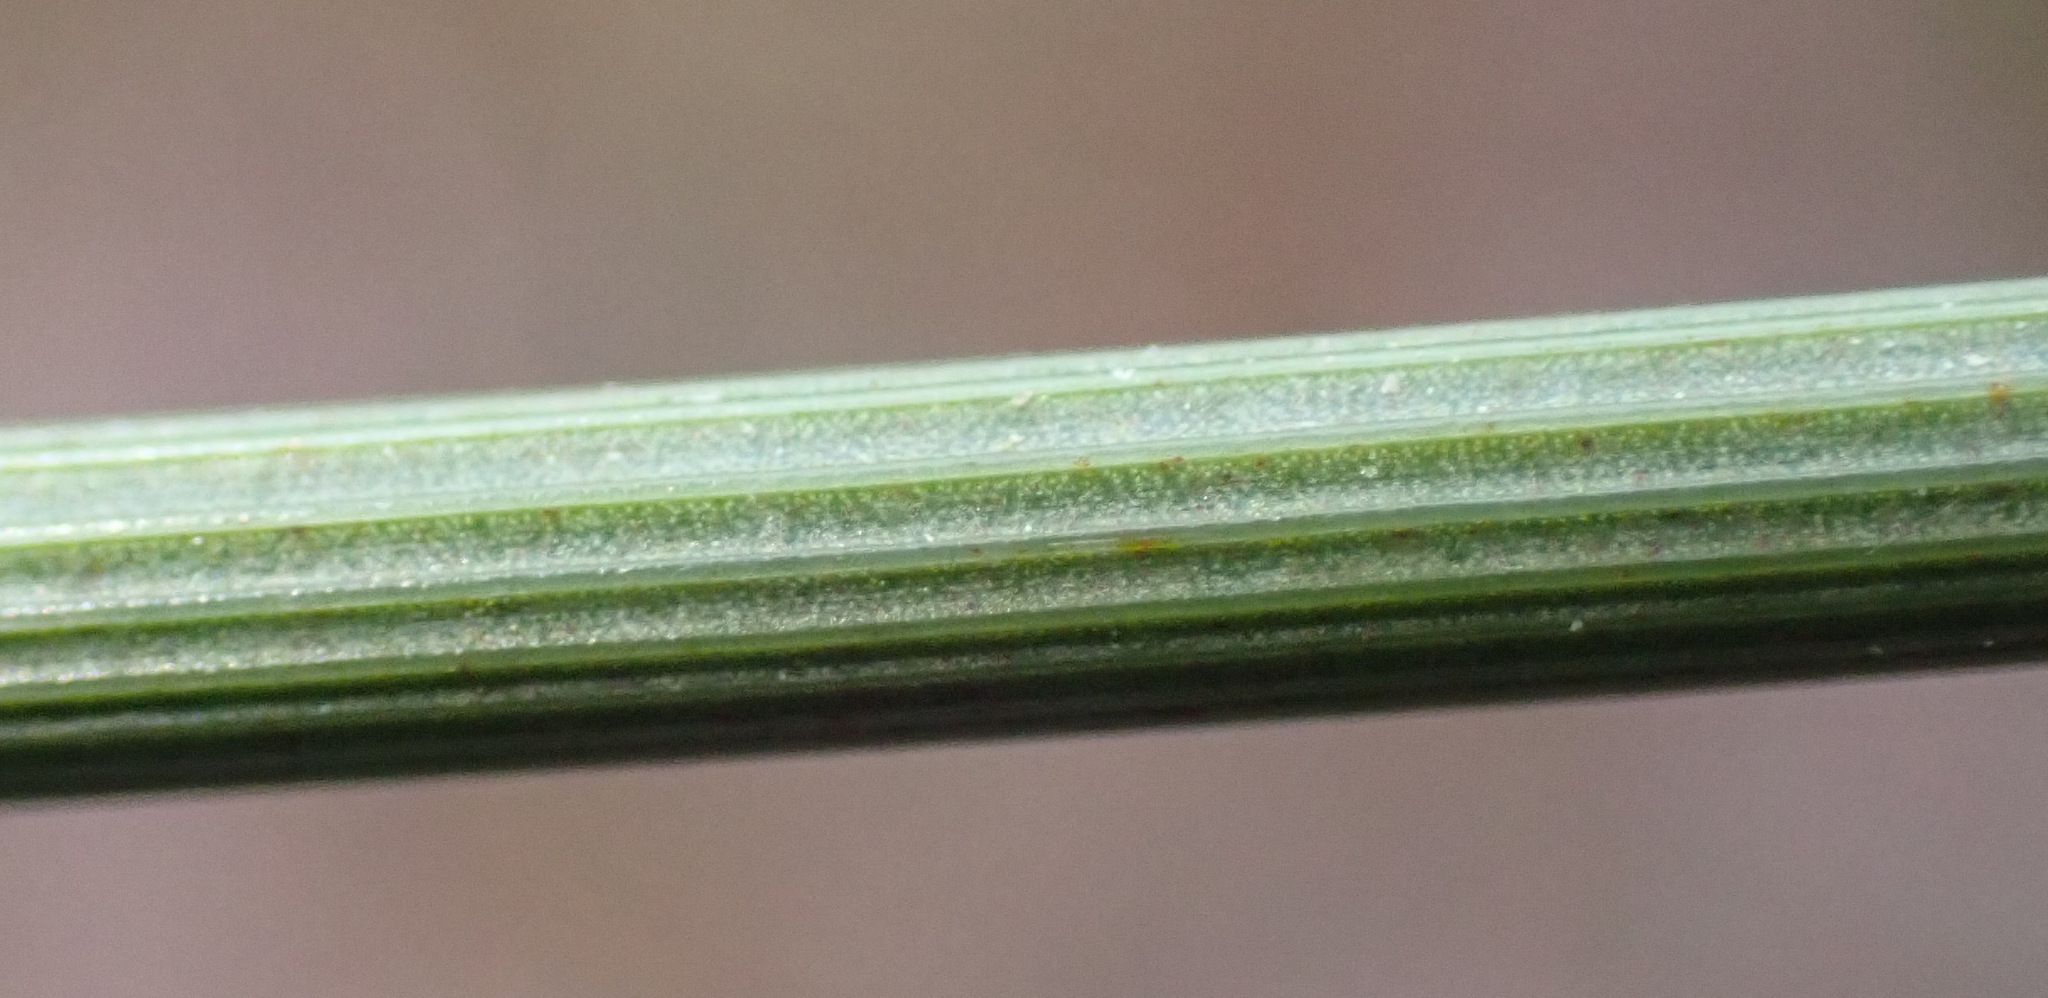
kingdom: Plantae
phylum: Tracheophyta
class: Liliopsida
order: Poales
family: Juncaceae
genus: Juncus
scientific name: Juncus inflexus
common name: Hard rush
